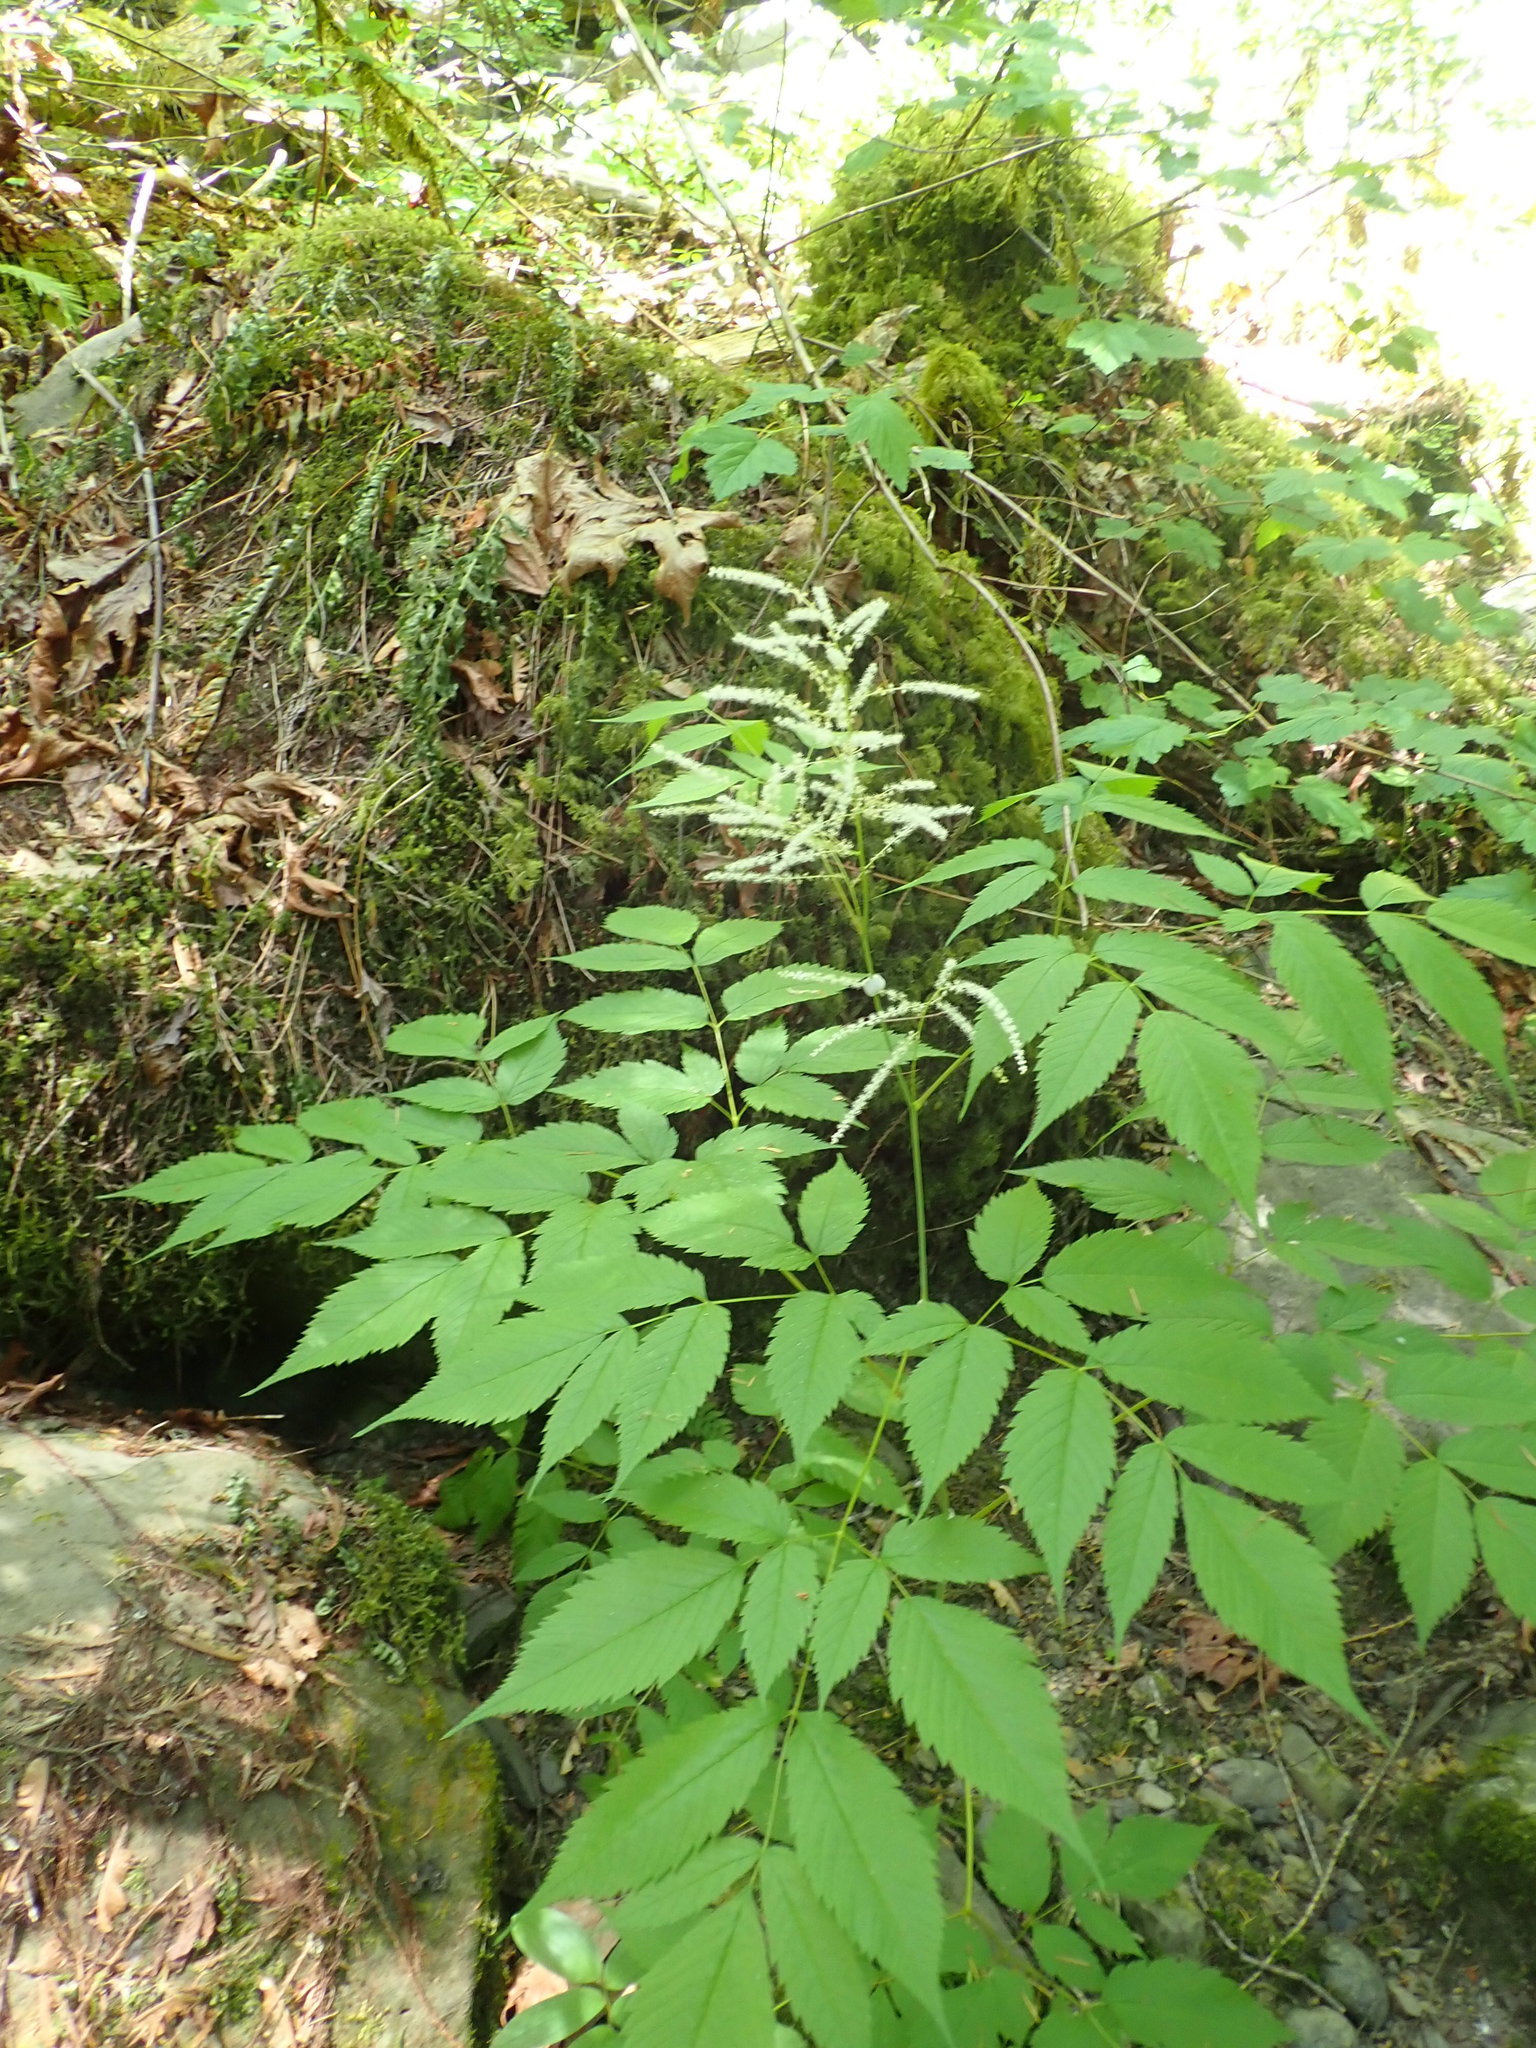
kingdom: Plantae
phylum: Tracheophyta
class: Magnoliopsida
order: Rosales
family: Rosaceae
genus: Aruncus
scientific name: Aruncus dioicus
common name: Buck's-beard
